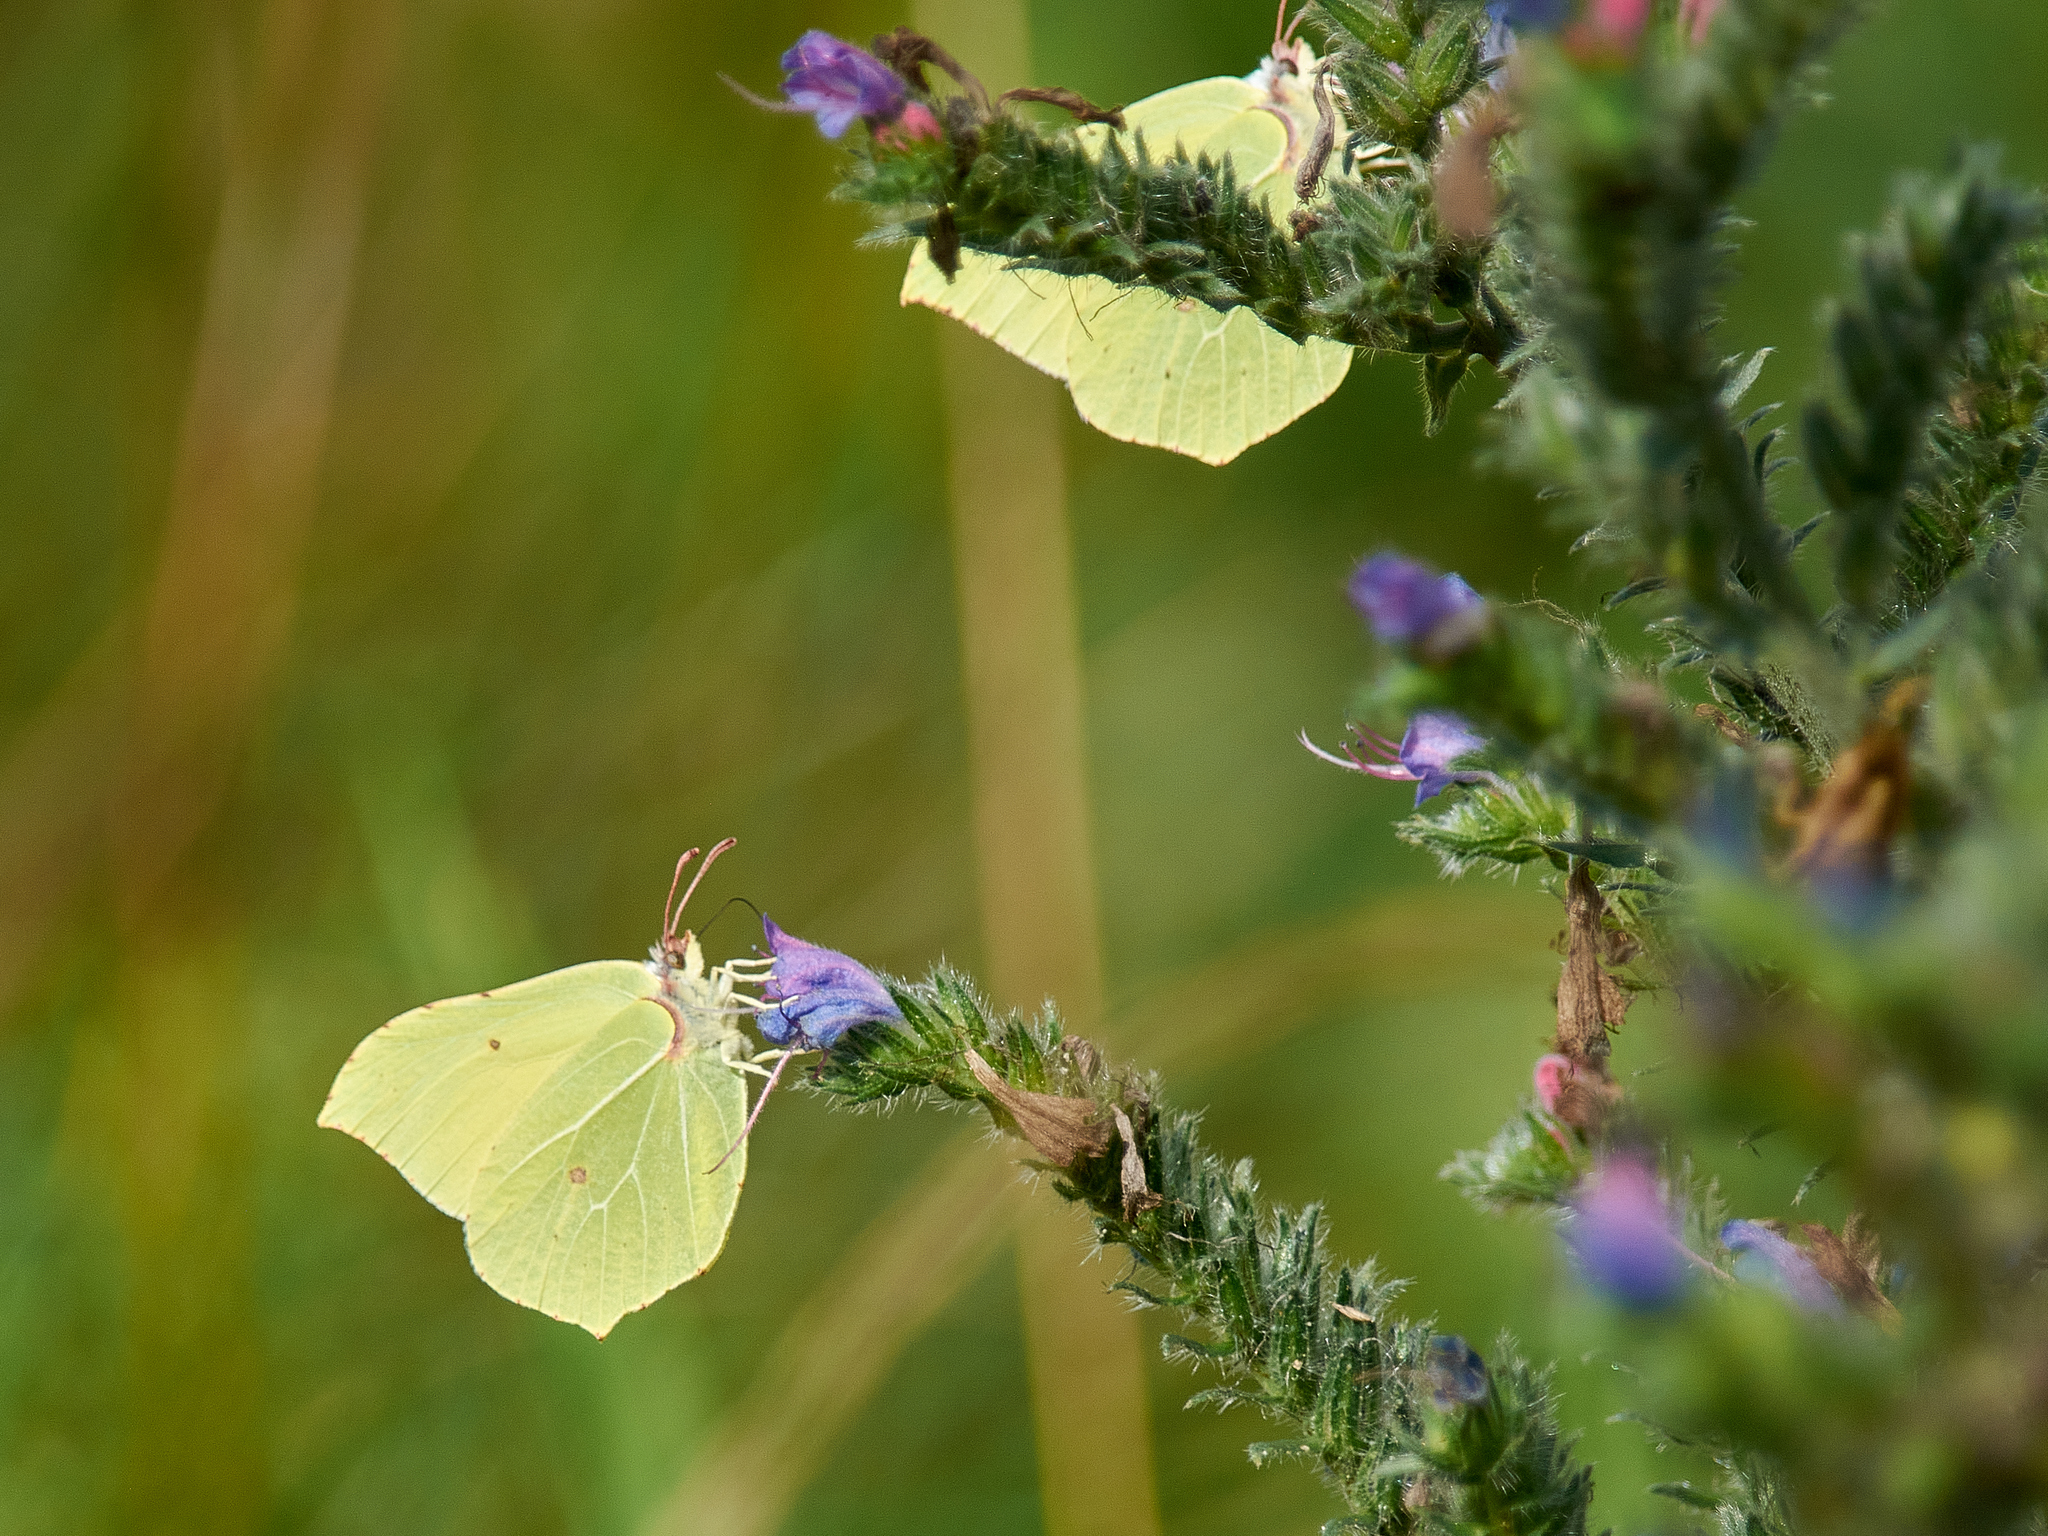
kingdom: Animalia
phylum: Arthropoda
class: Insecta
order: Lepidoptera
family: Pieridae
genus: Gonepteryx
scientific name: Gonepteryx rhamni
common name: Brimstone
